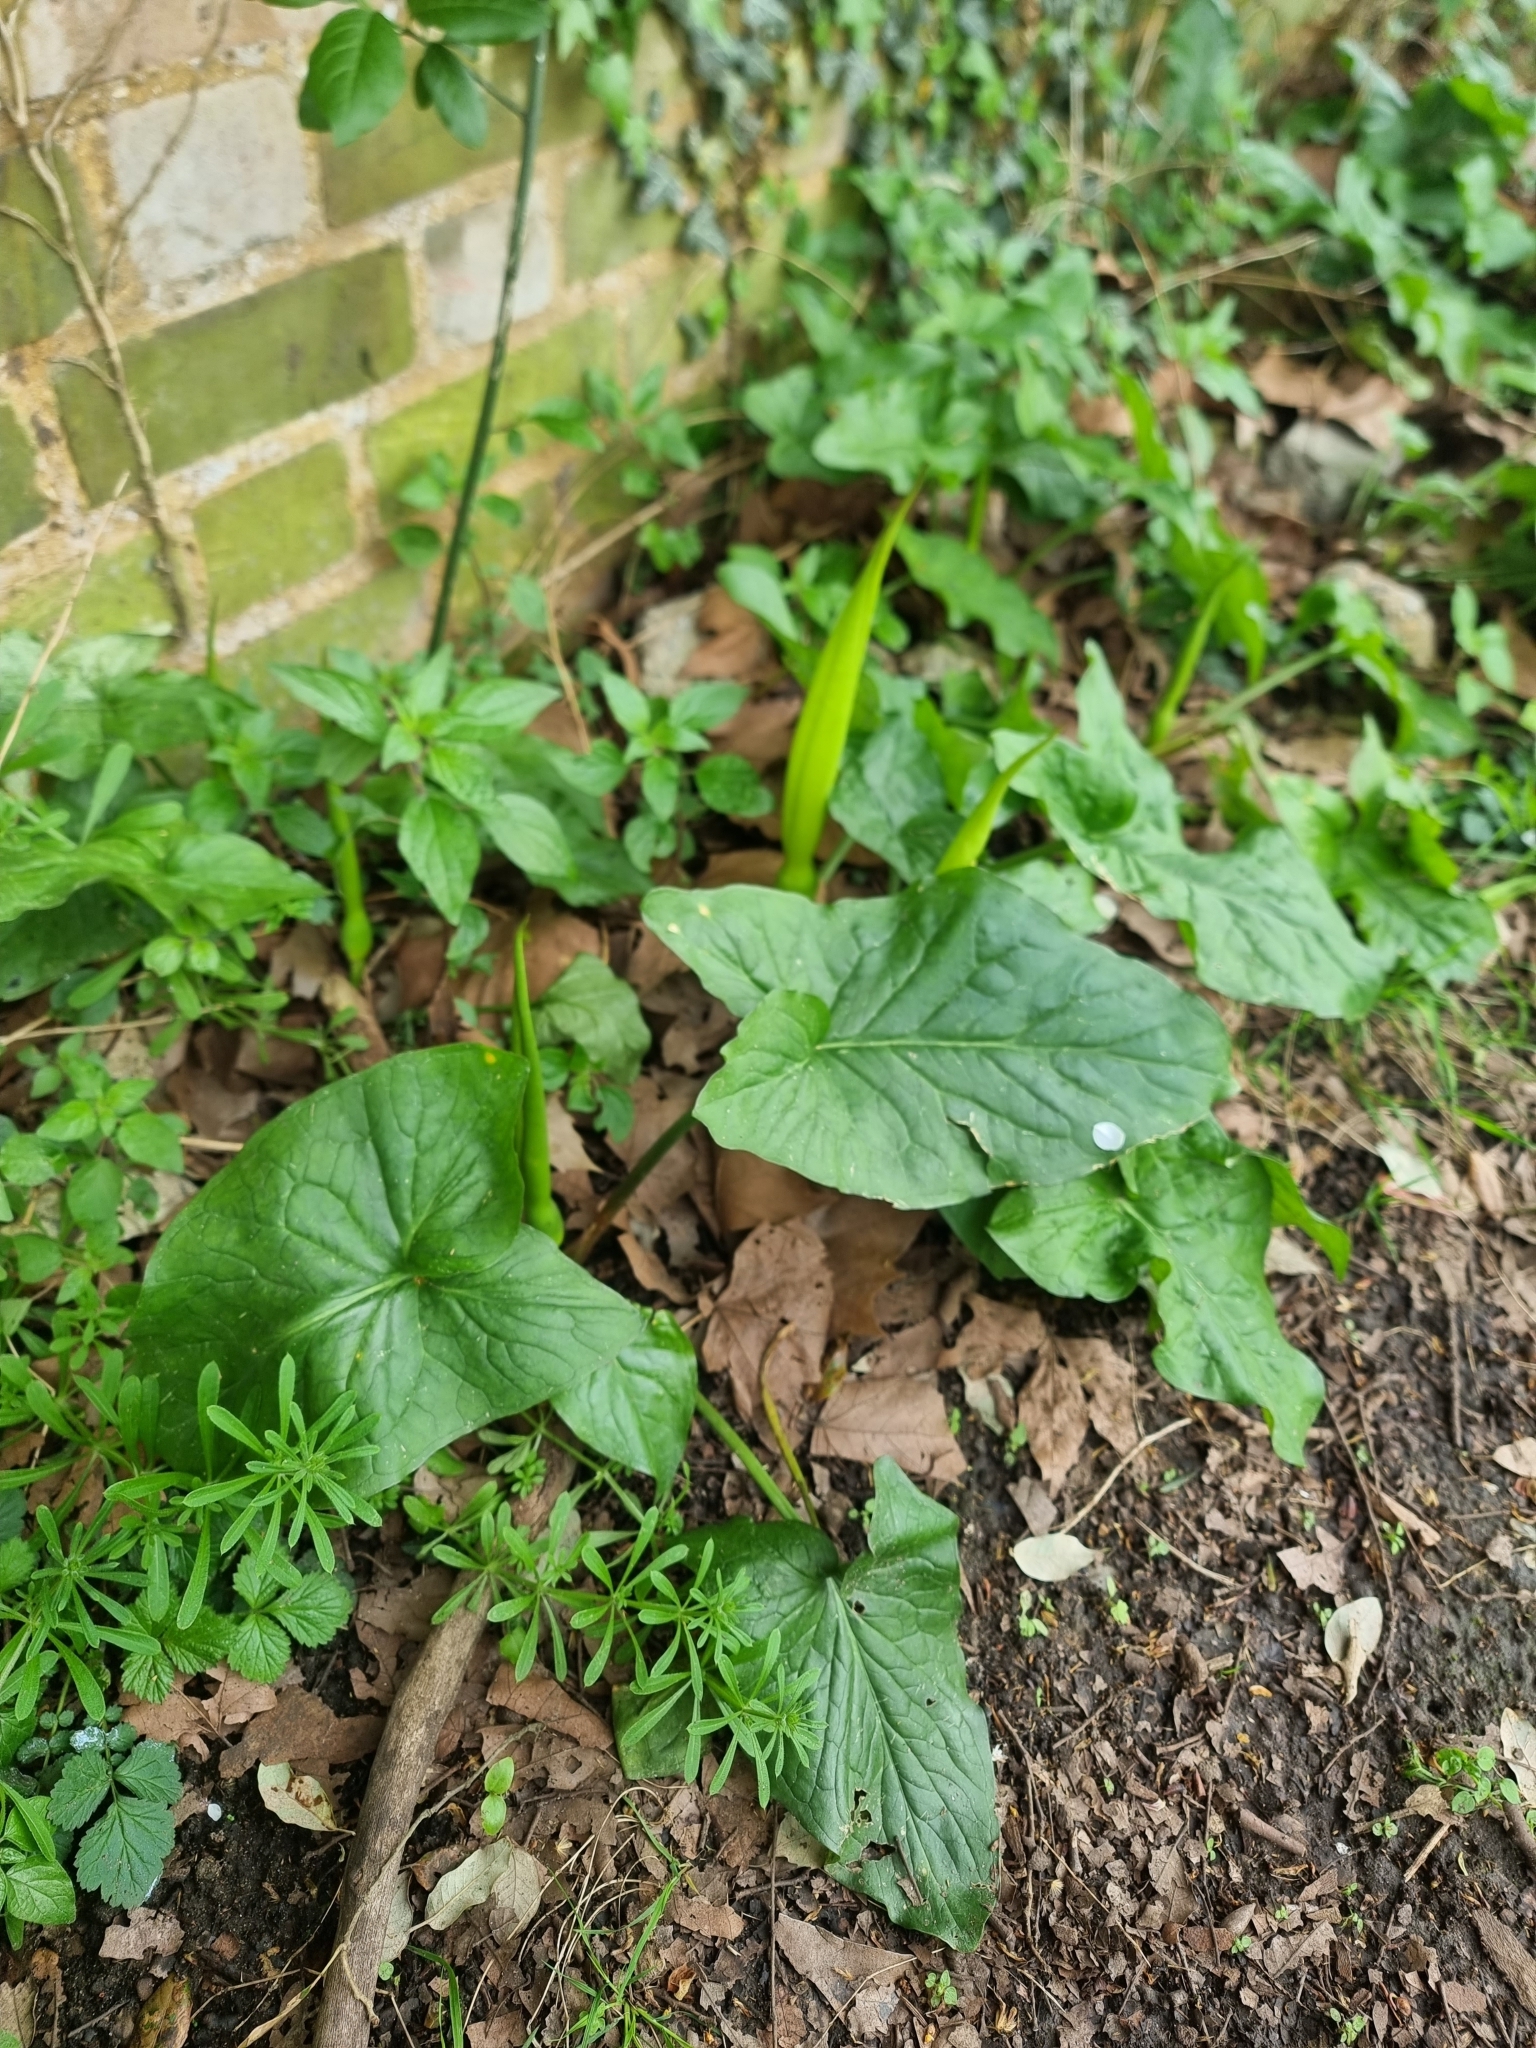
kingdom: Plantae
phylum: Tracheophyta
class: Liliopsida
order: Alismatales
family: Araceae
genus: Arum
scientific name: Arum maculatum
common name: Lords-and-ladies
